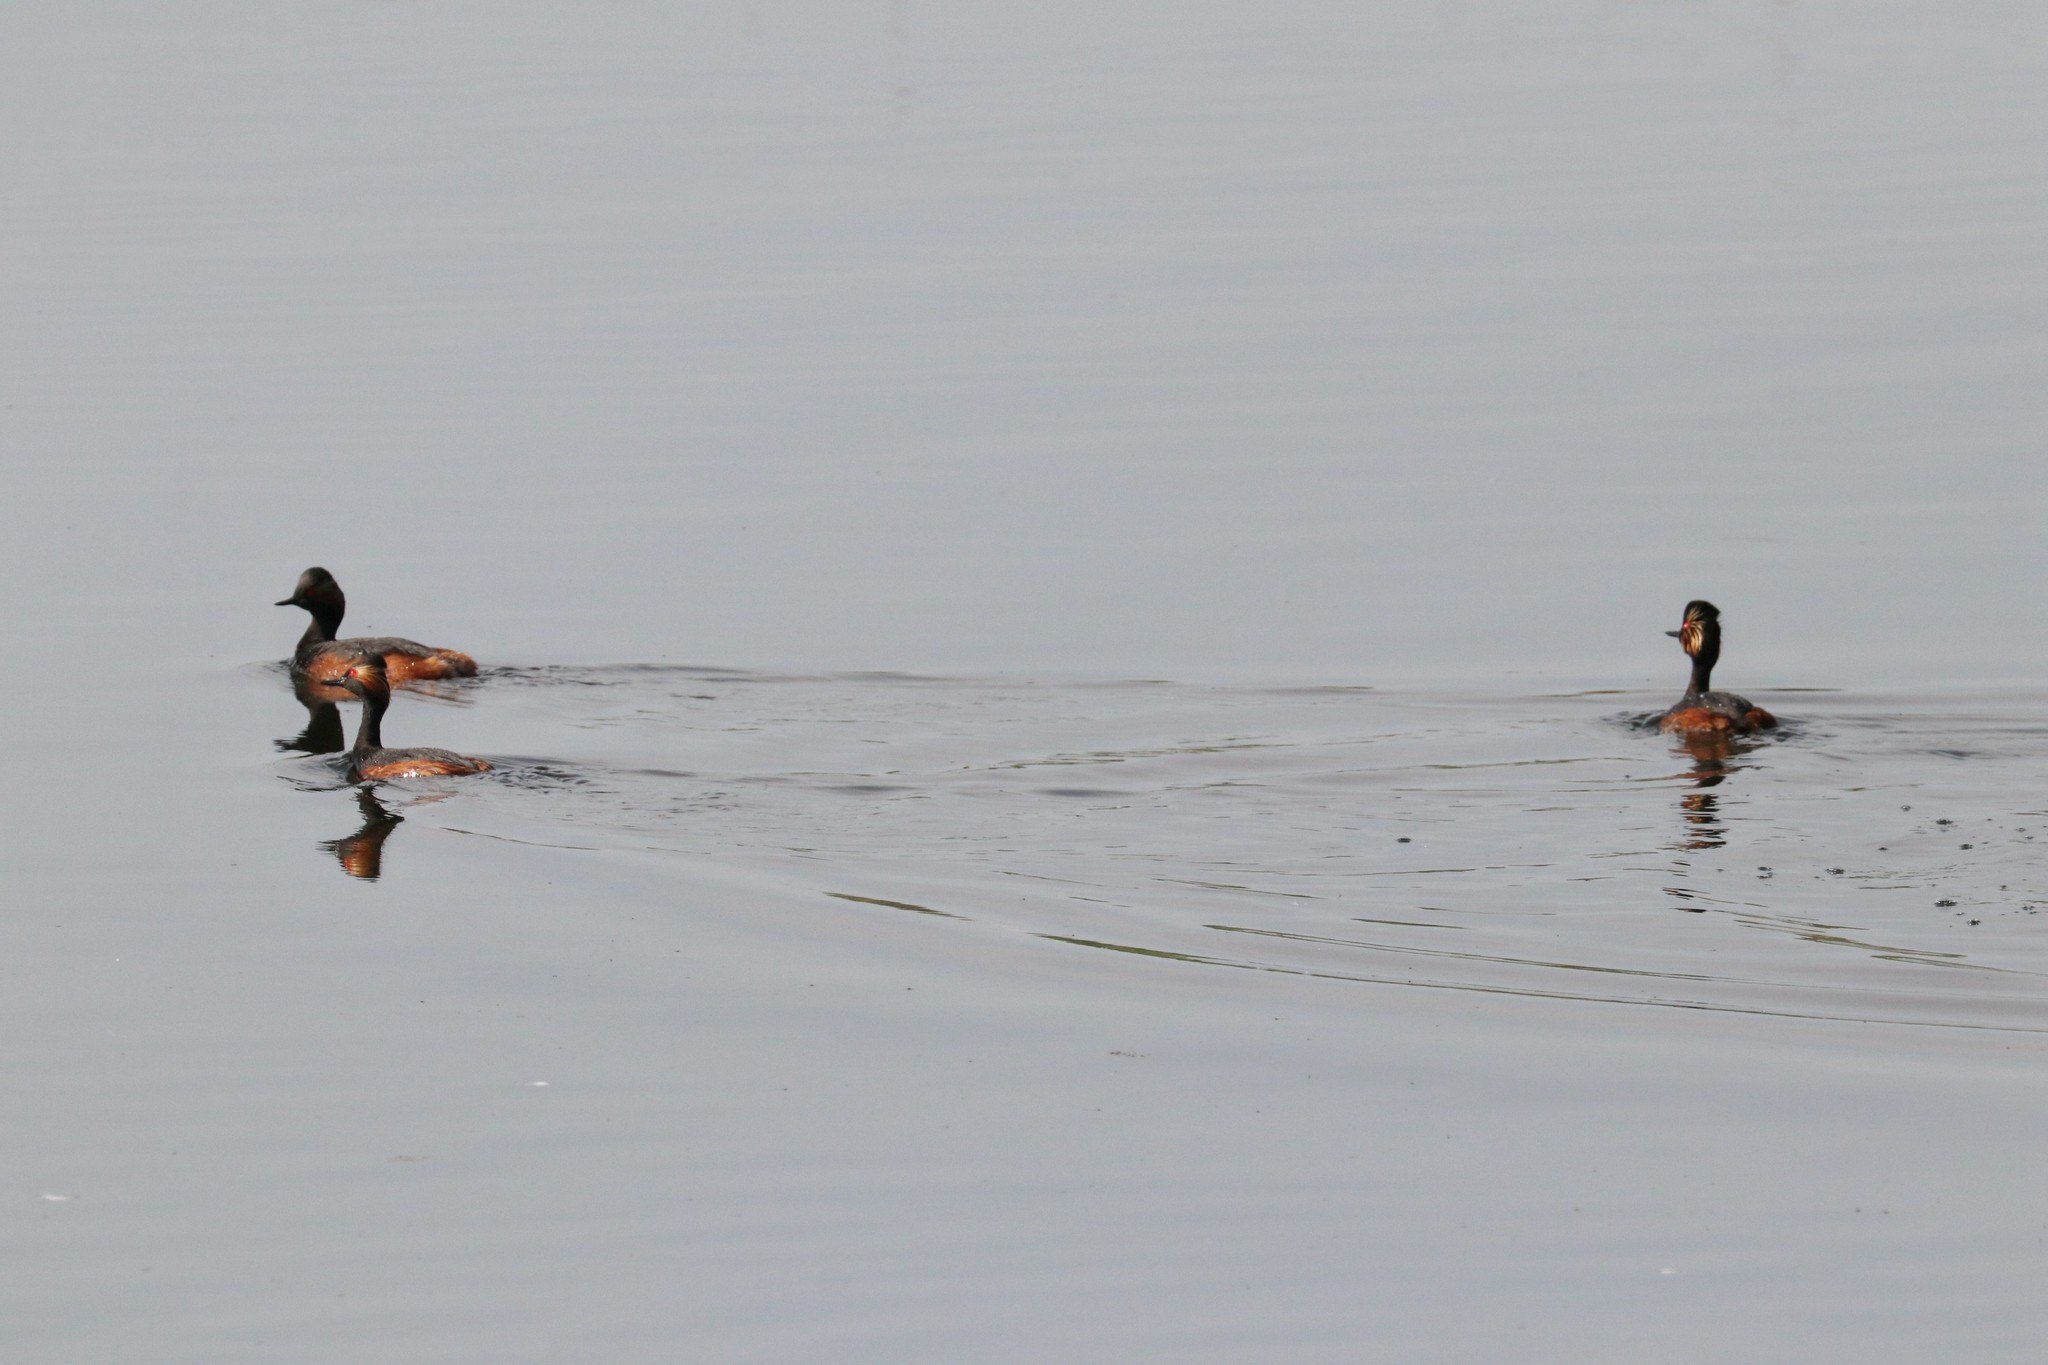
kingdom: Animalia
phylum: Chordata
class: Aves
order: Podicipediformes
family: Podicipedidae
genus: Podiceps
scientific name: Podiceps nigricollis
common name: Black-necked grebe
